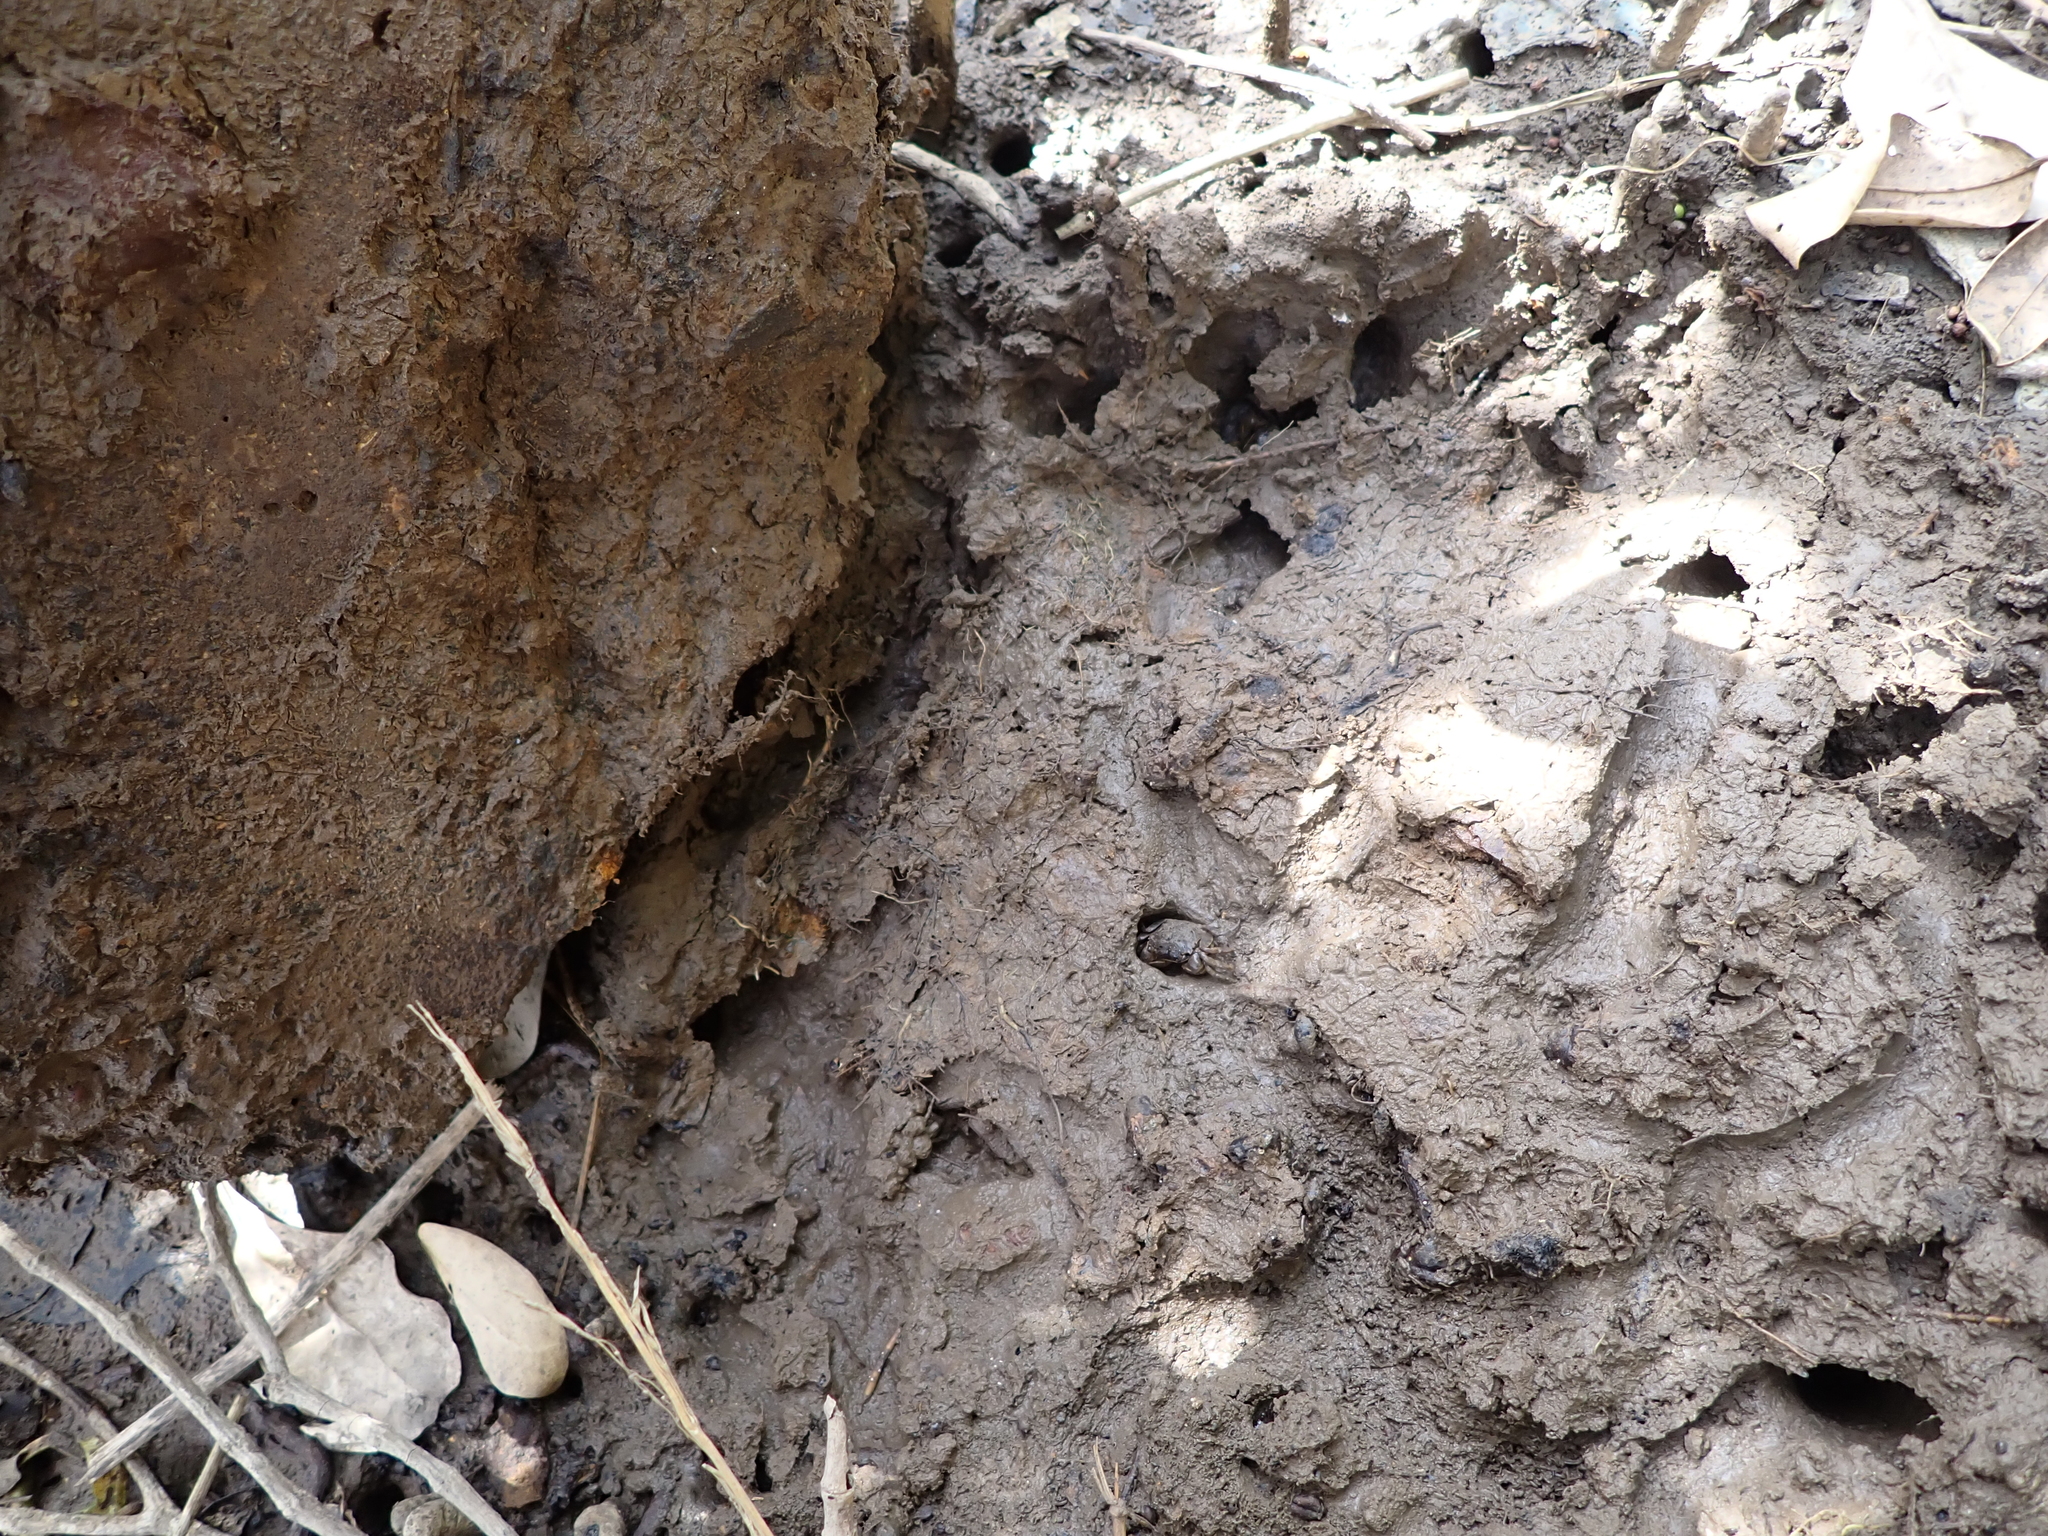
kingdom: Animalia
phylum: Arthropoda
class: Malacostraca
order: Decapoda
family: Varunidae
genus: Austrohelice
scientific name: Austrohelice crassa
